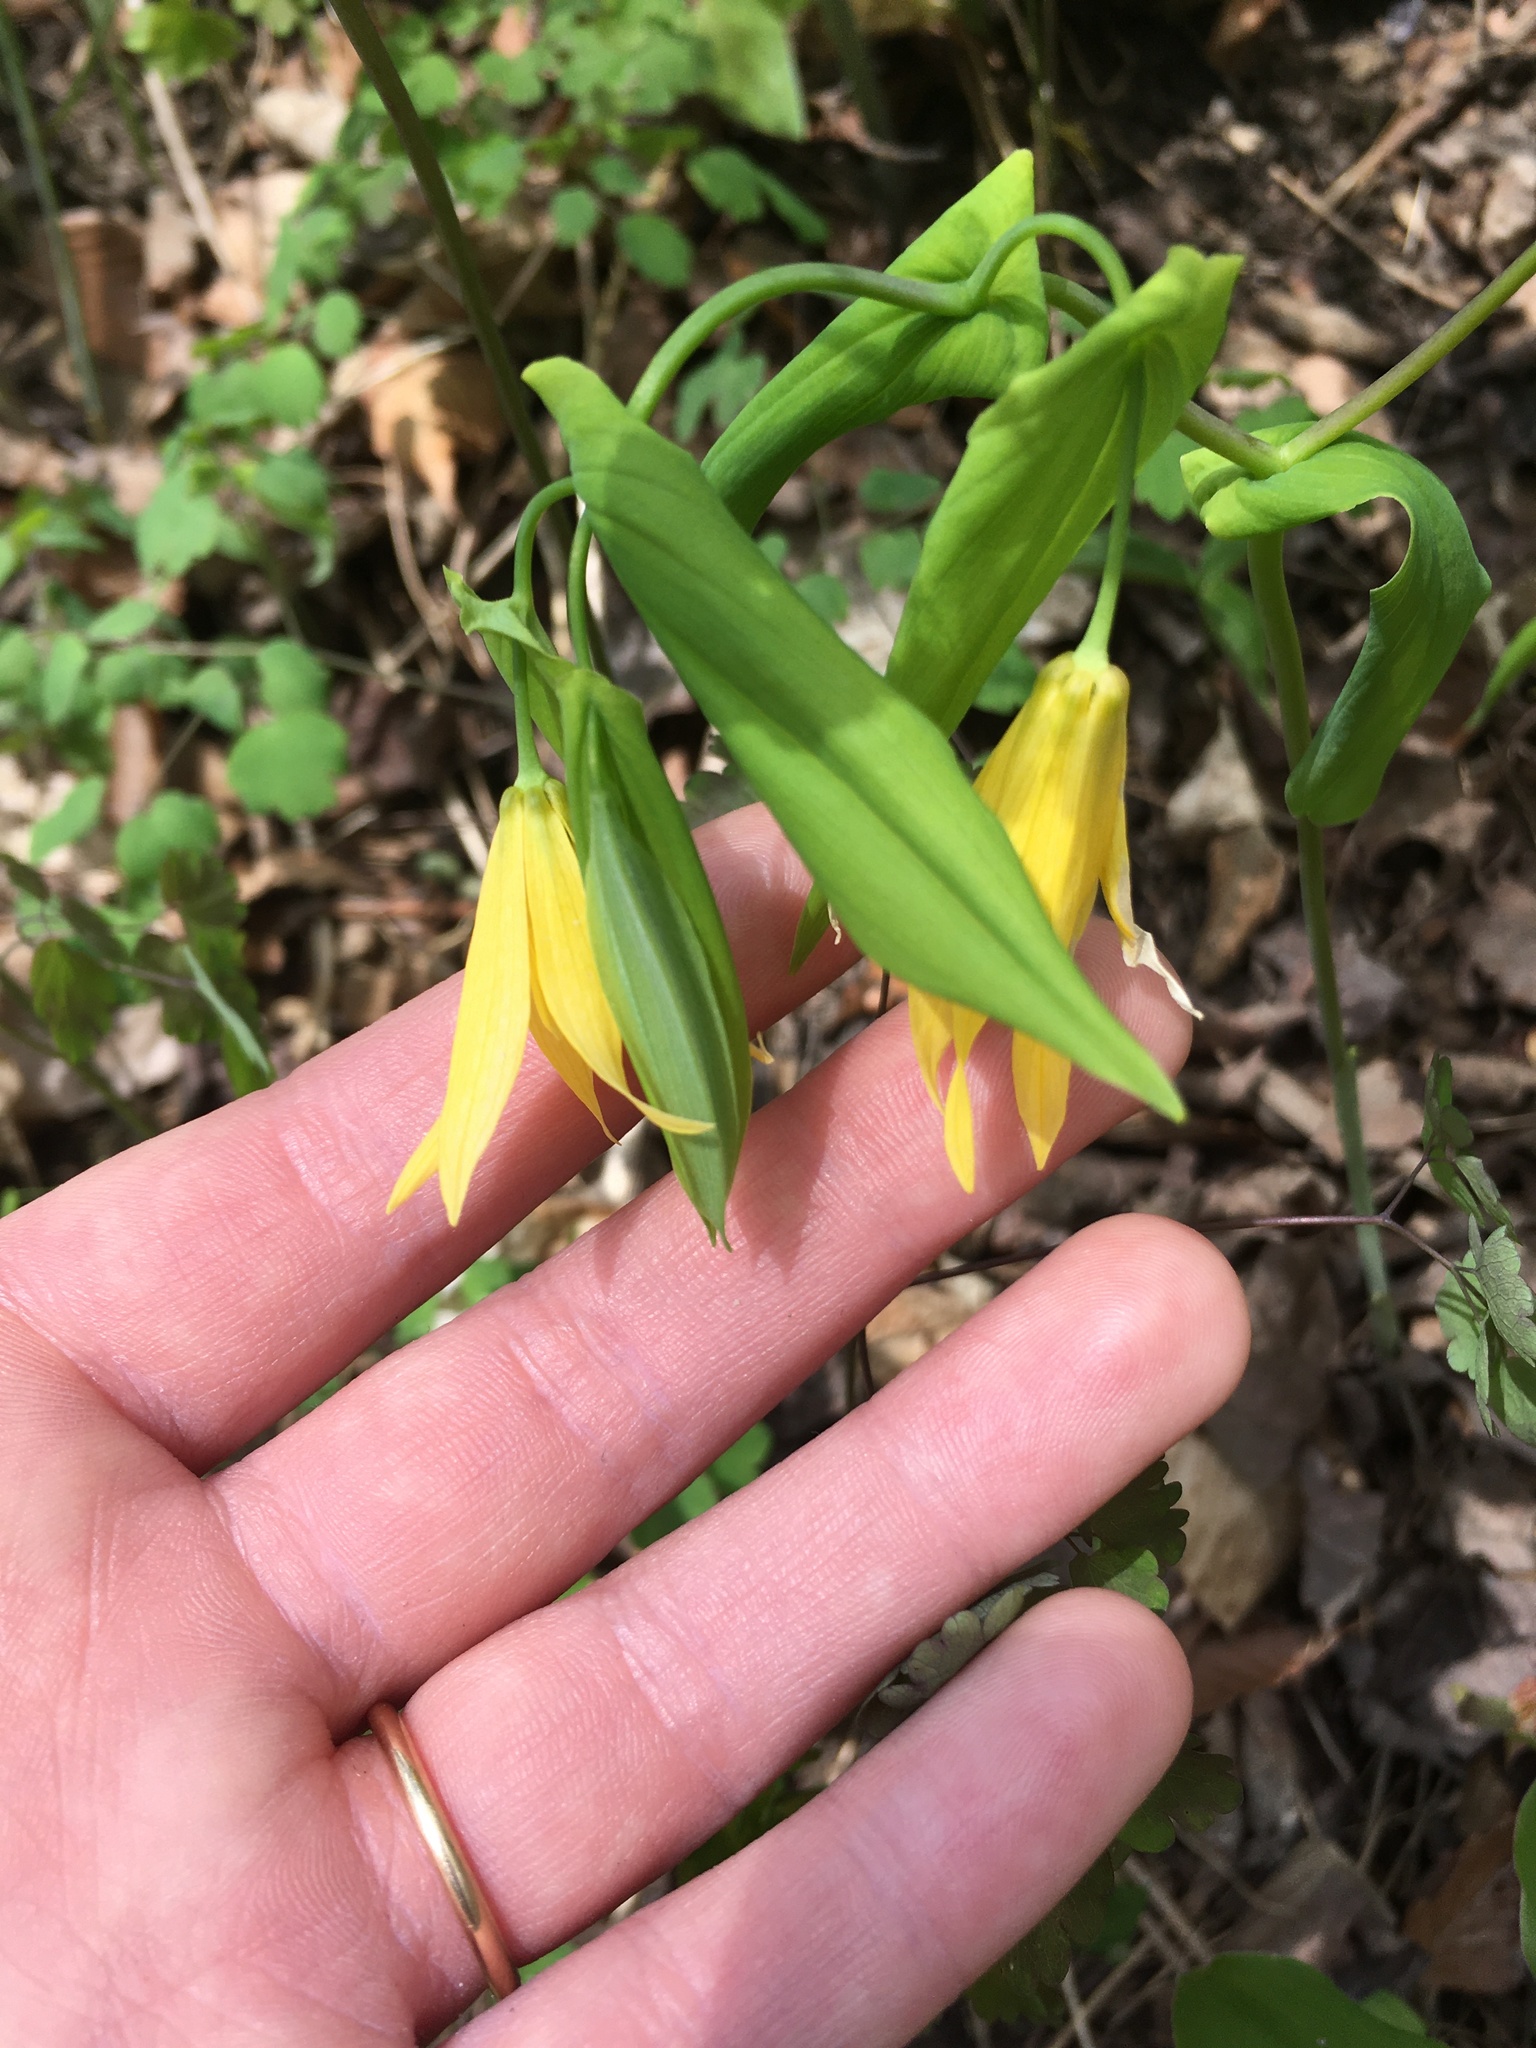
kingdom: Plantae
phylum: Tracheophyta
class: Liliopsida
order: Liliales
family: Colchicaceae
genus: Uvularia
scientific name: Uvularia grandiflora
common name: Bellwort
